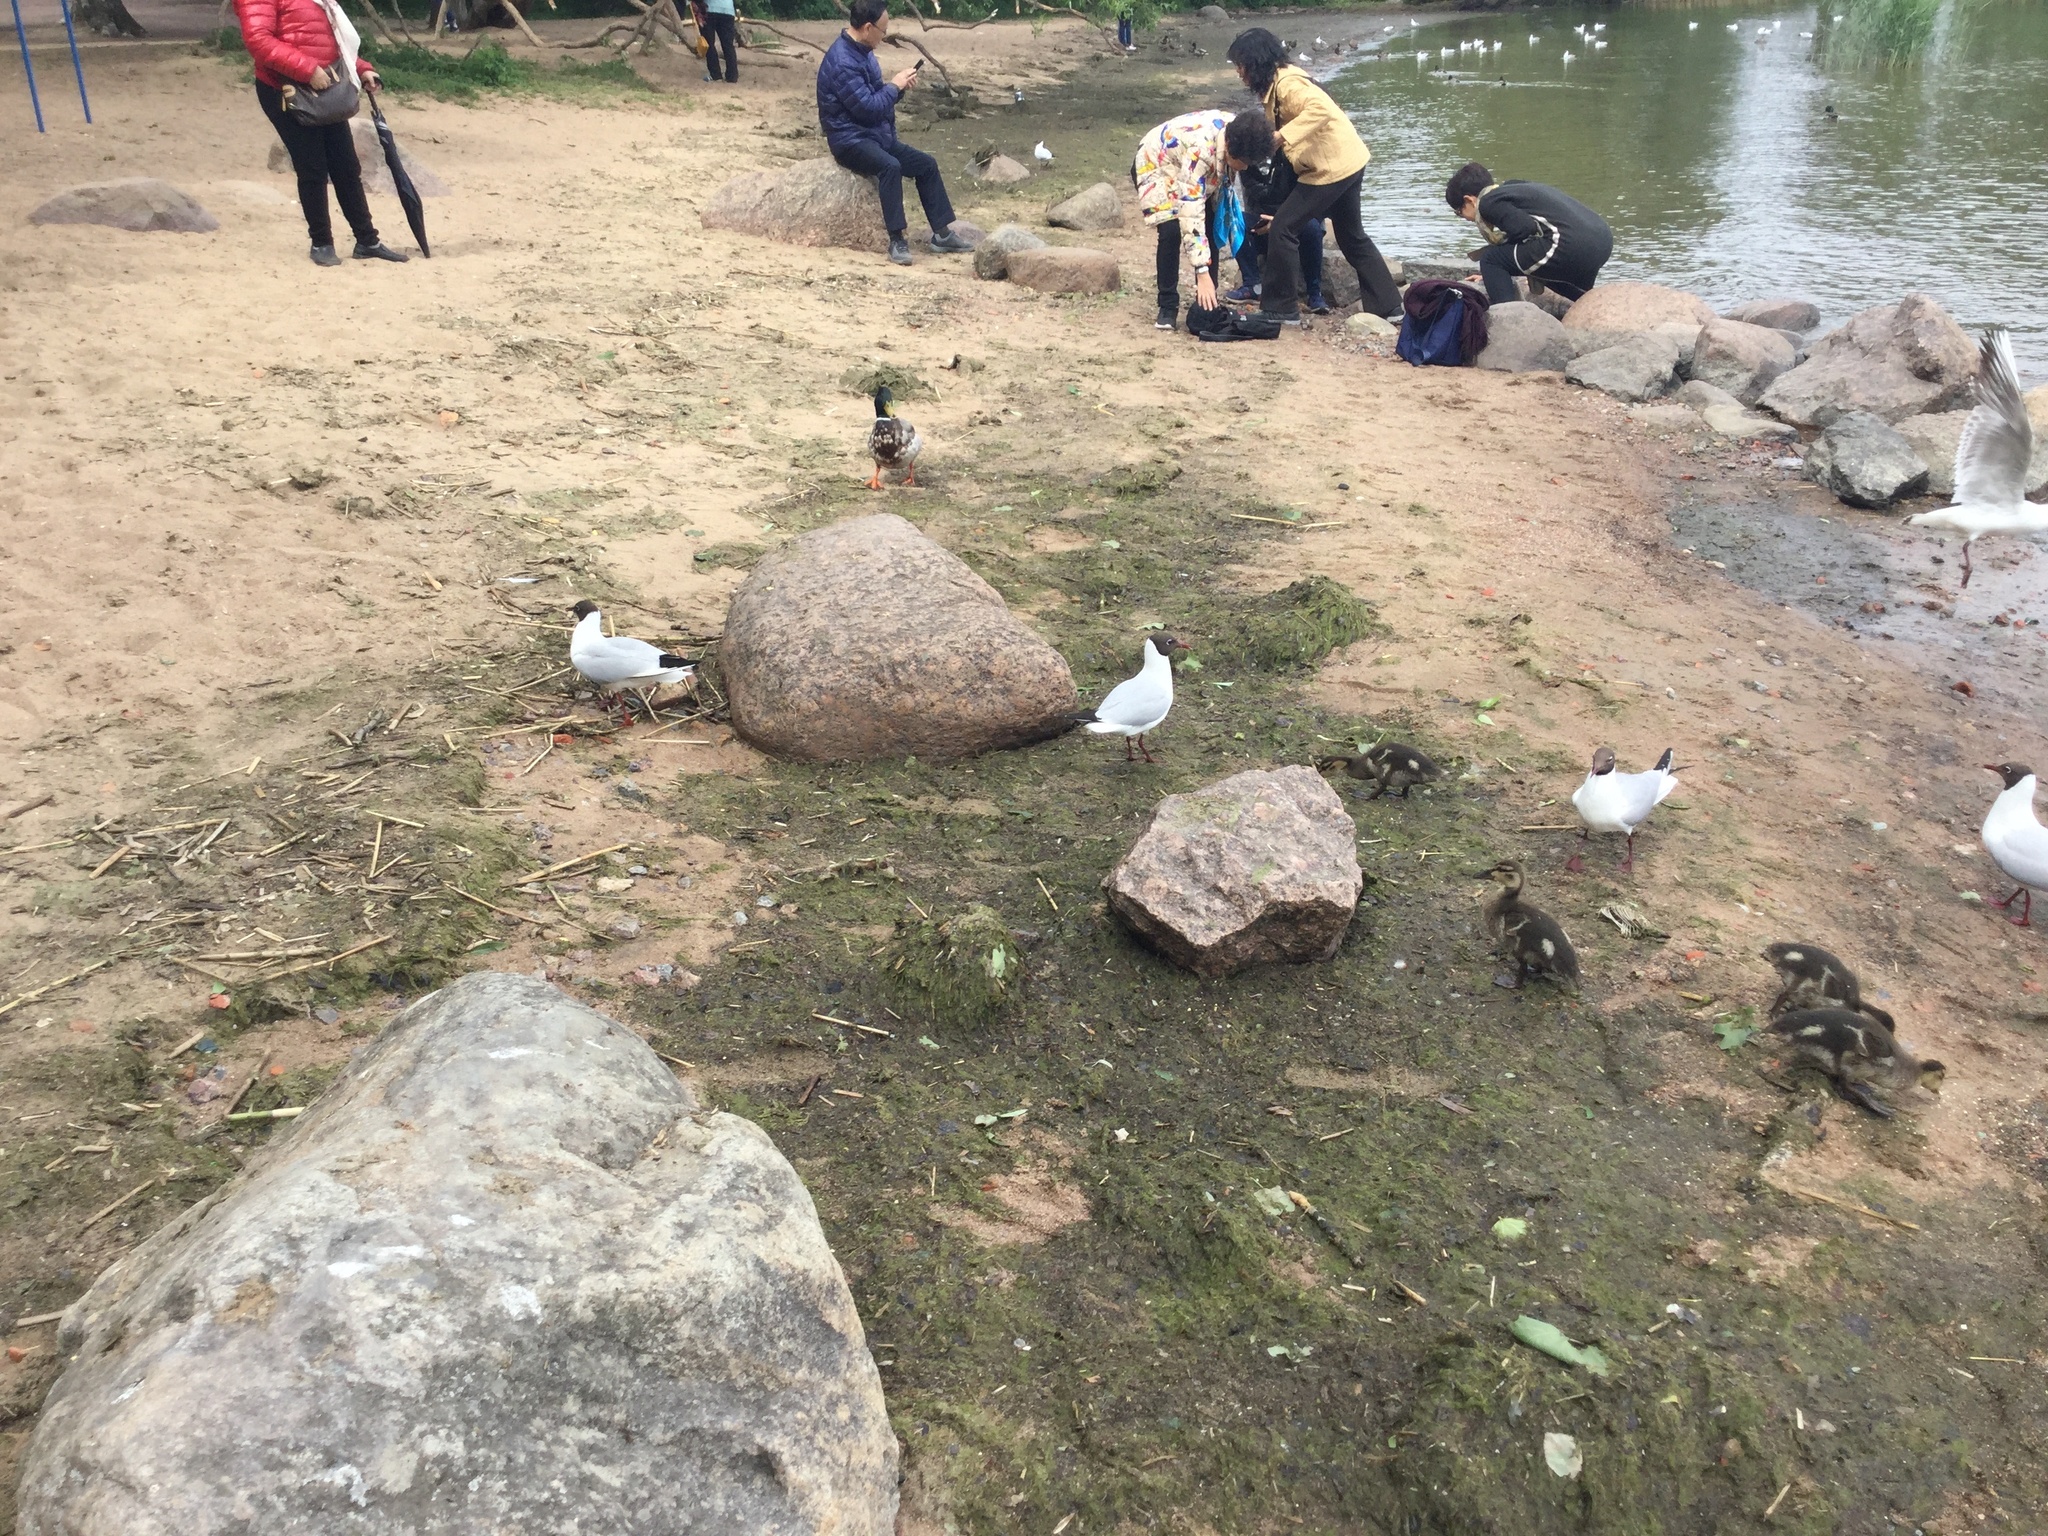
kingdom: Animalia
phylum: Chordata
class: Aves
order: Charadriiformes
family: Laridae
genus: Chroicocephalus
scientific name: Chroicocephalus ridibundus
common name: Black-headed gull
